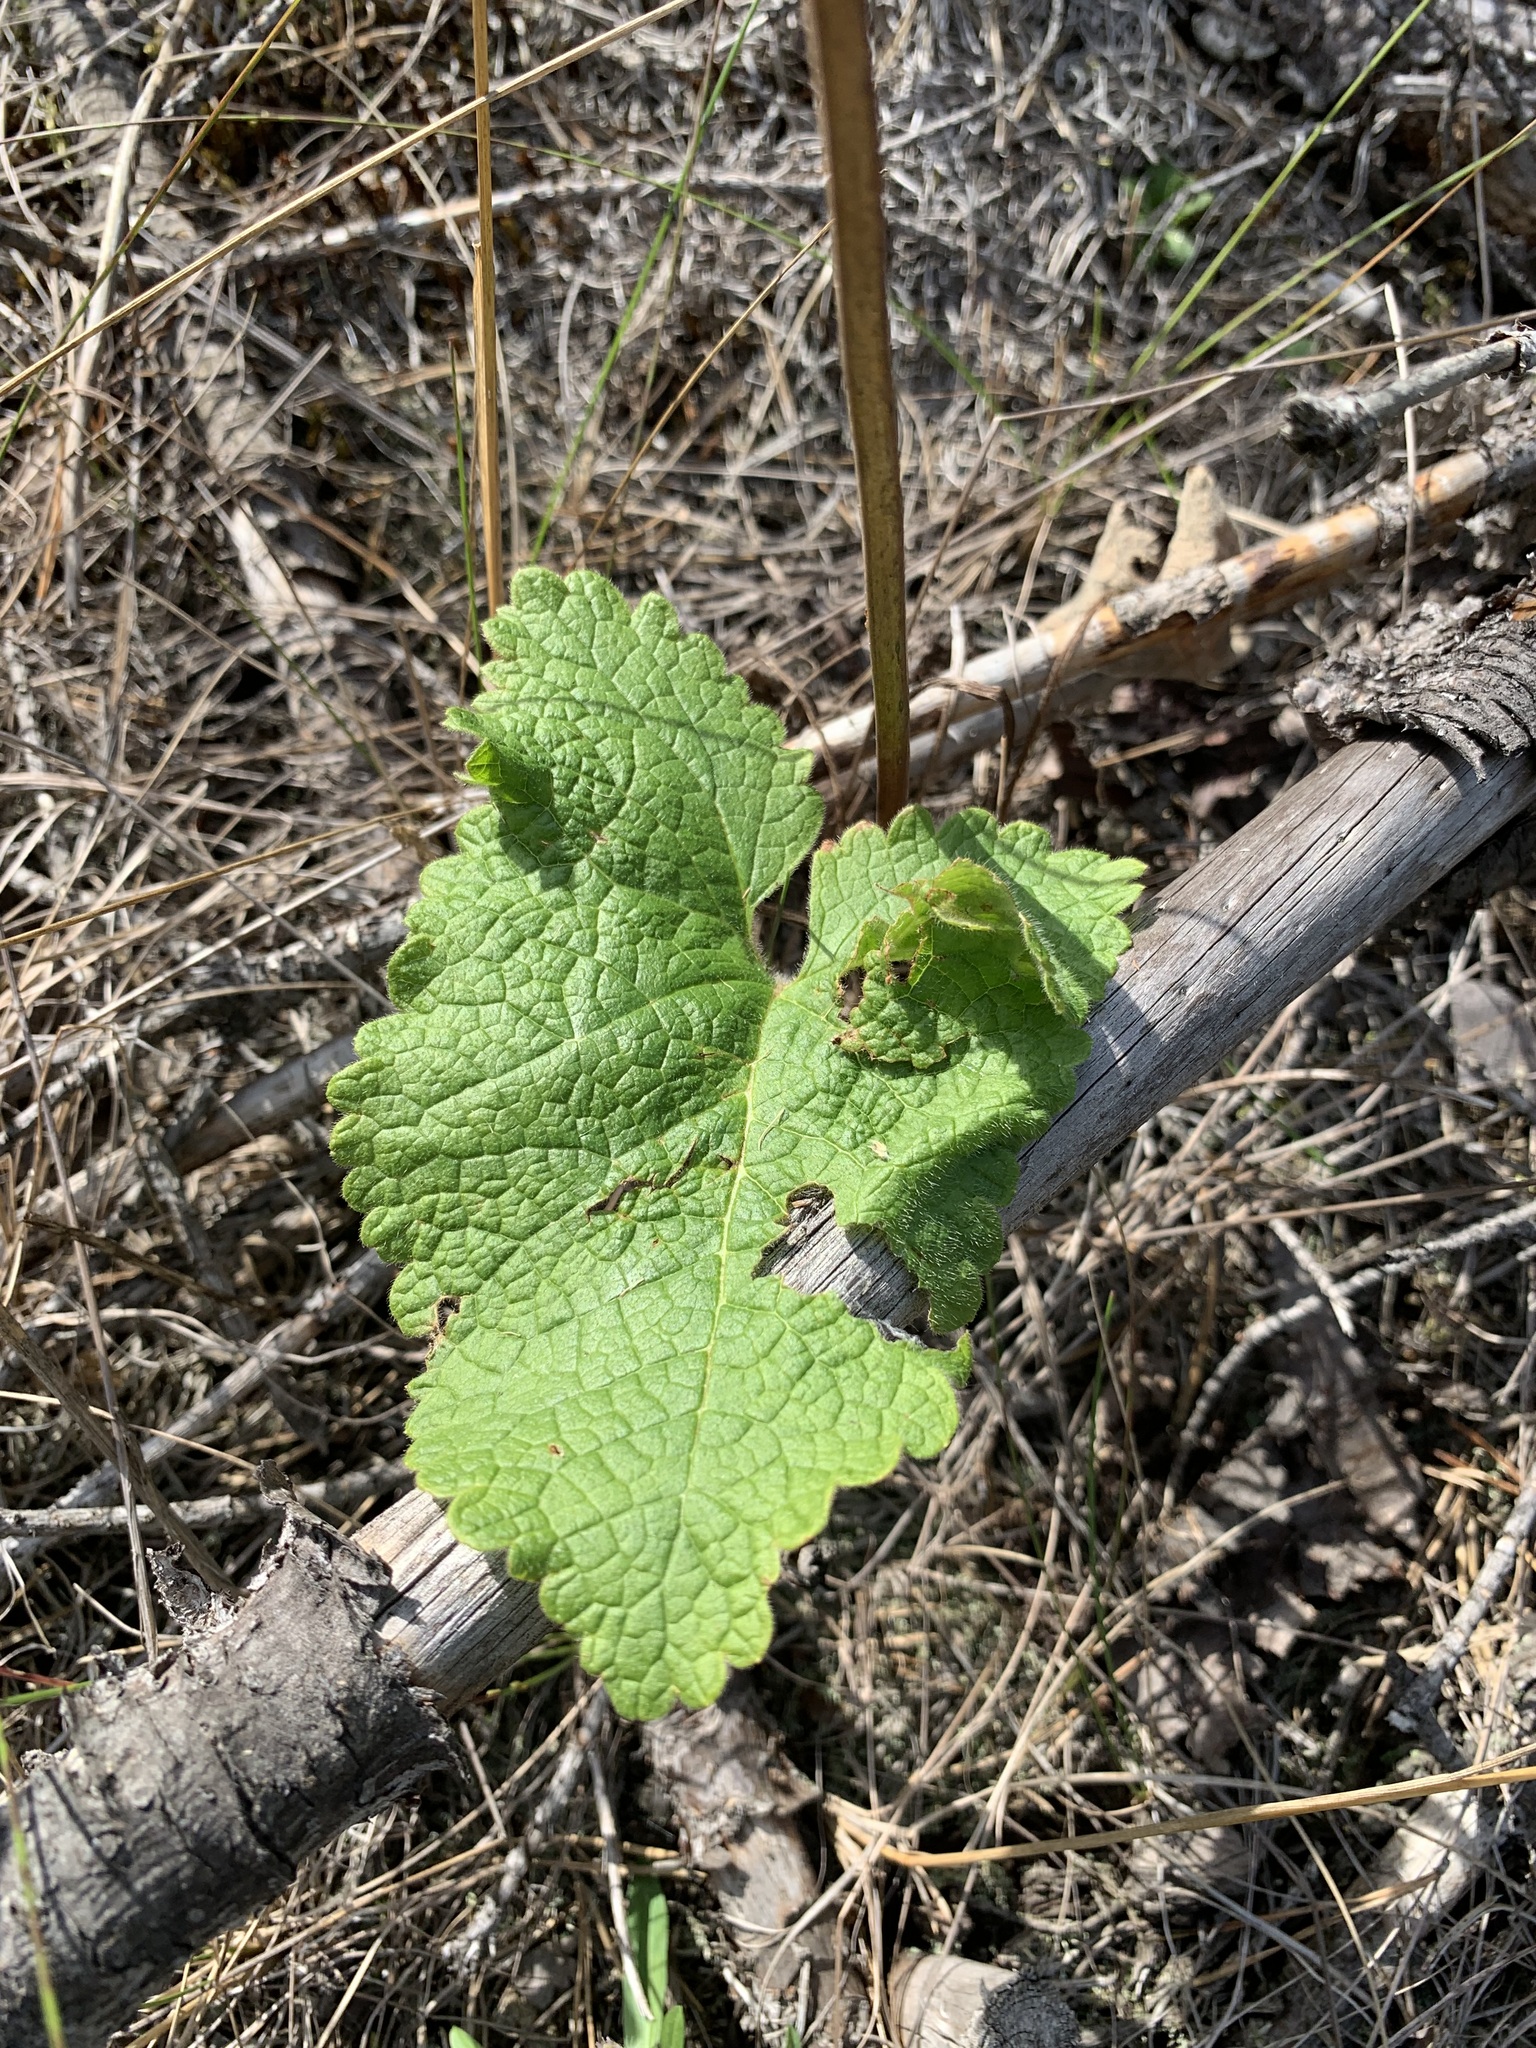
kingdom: Plantae
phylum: Tracheophyta
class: Magnoliopsida
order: Lamiales
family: Lamiaceae
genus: Phlomoides
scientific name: Phlomoides tuberosa
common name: Tuberous jerusalem sage
